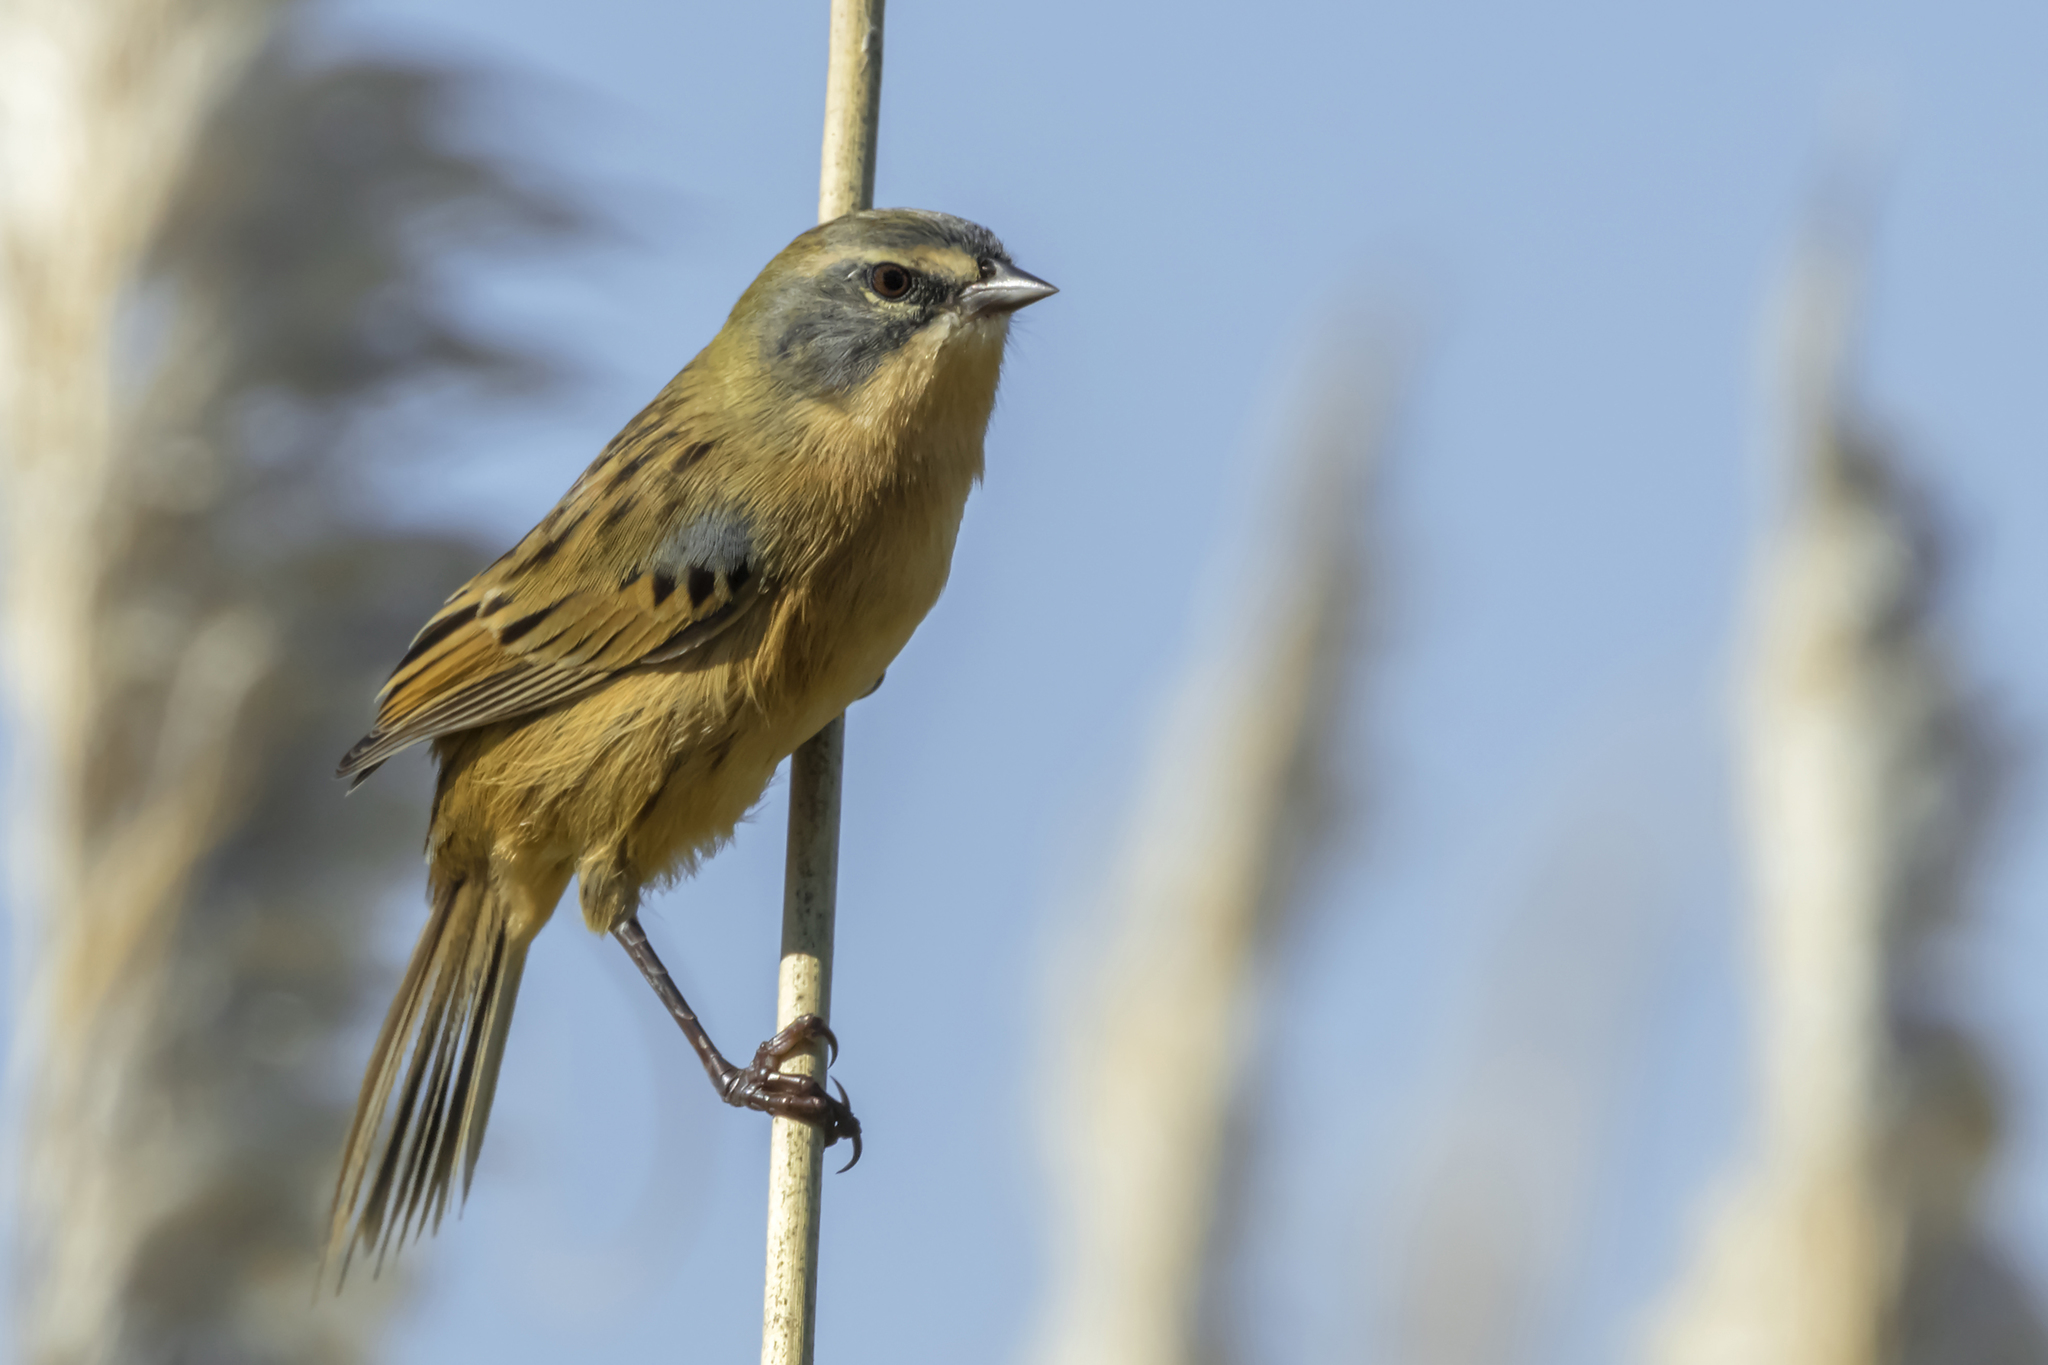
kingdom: Animalia
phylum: Chordata
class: Aves
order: Passeriformes
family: Thraupidae
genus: Donacospiza
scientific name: Donacospiza albifrons
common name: Long-tailed reed finch
